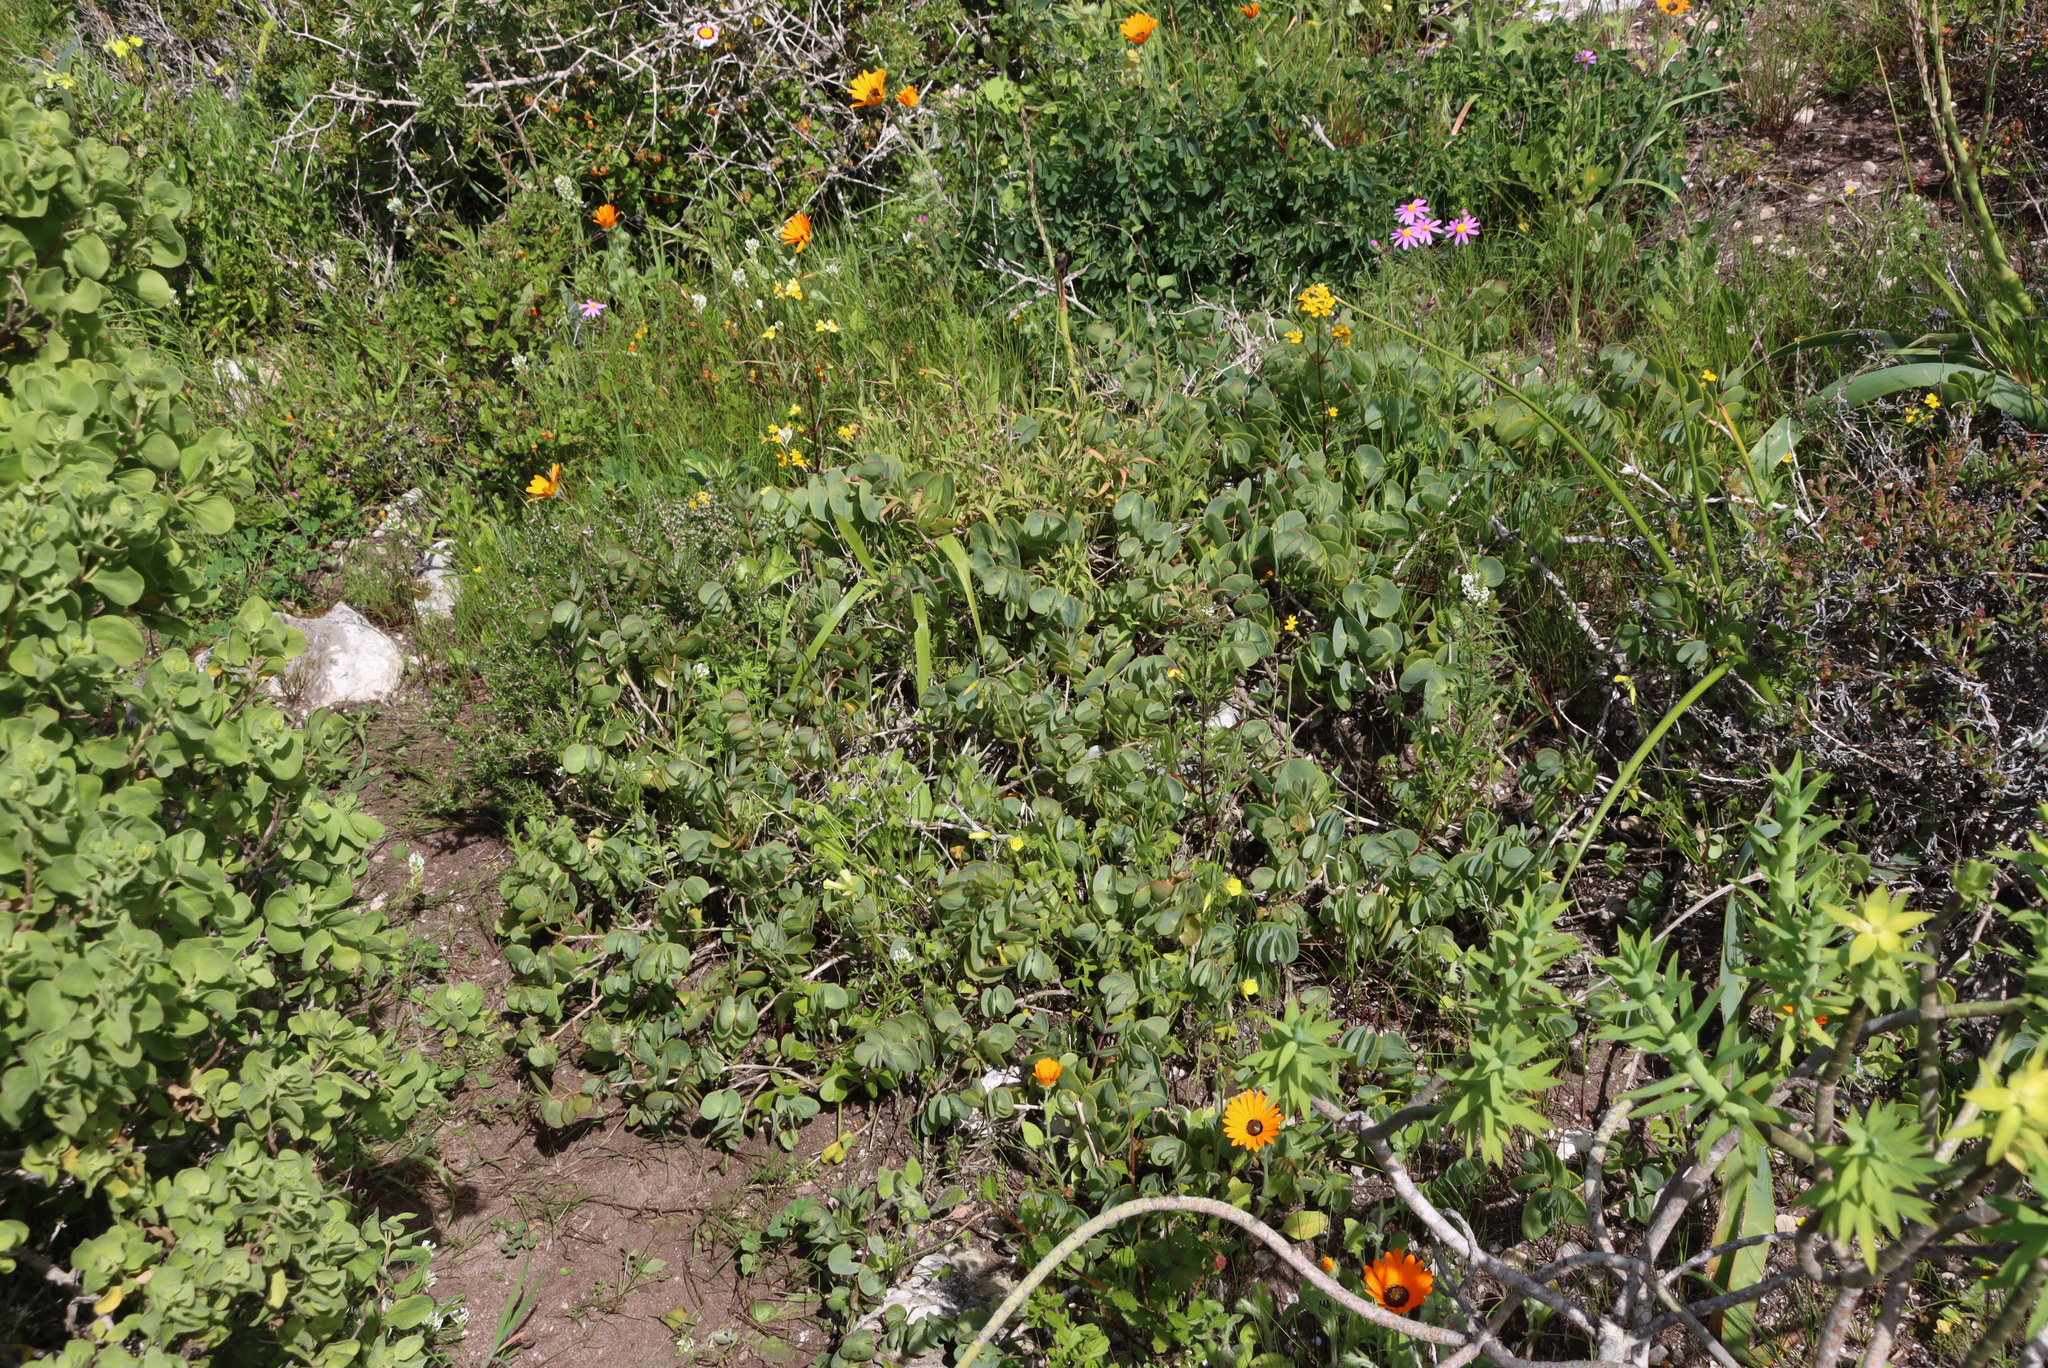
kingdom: Plantae
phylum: Tracheophyta
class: Magnoliopsida
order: Zygophyllales
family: Zygophyllaceae
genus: Roepera
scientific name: Roepera cordifolia
